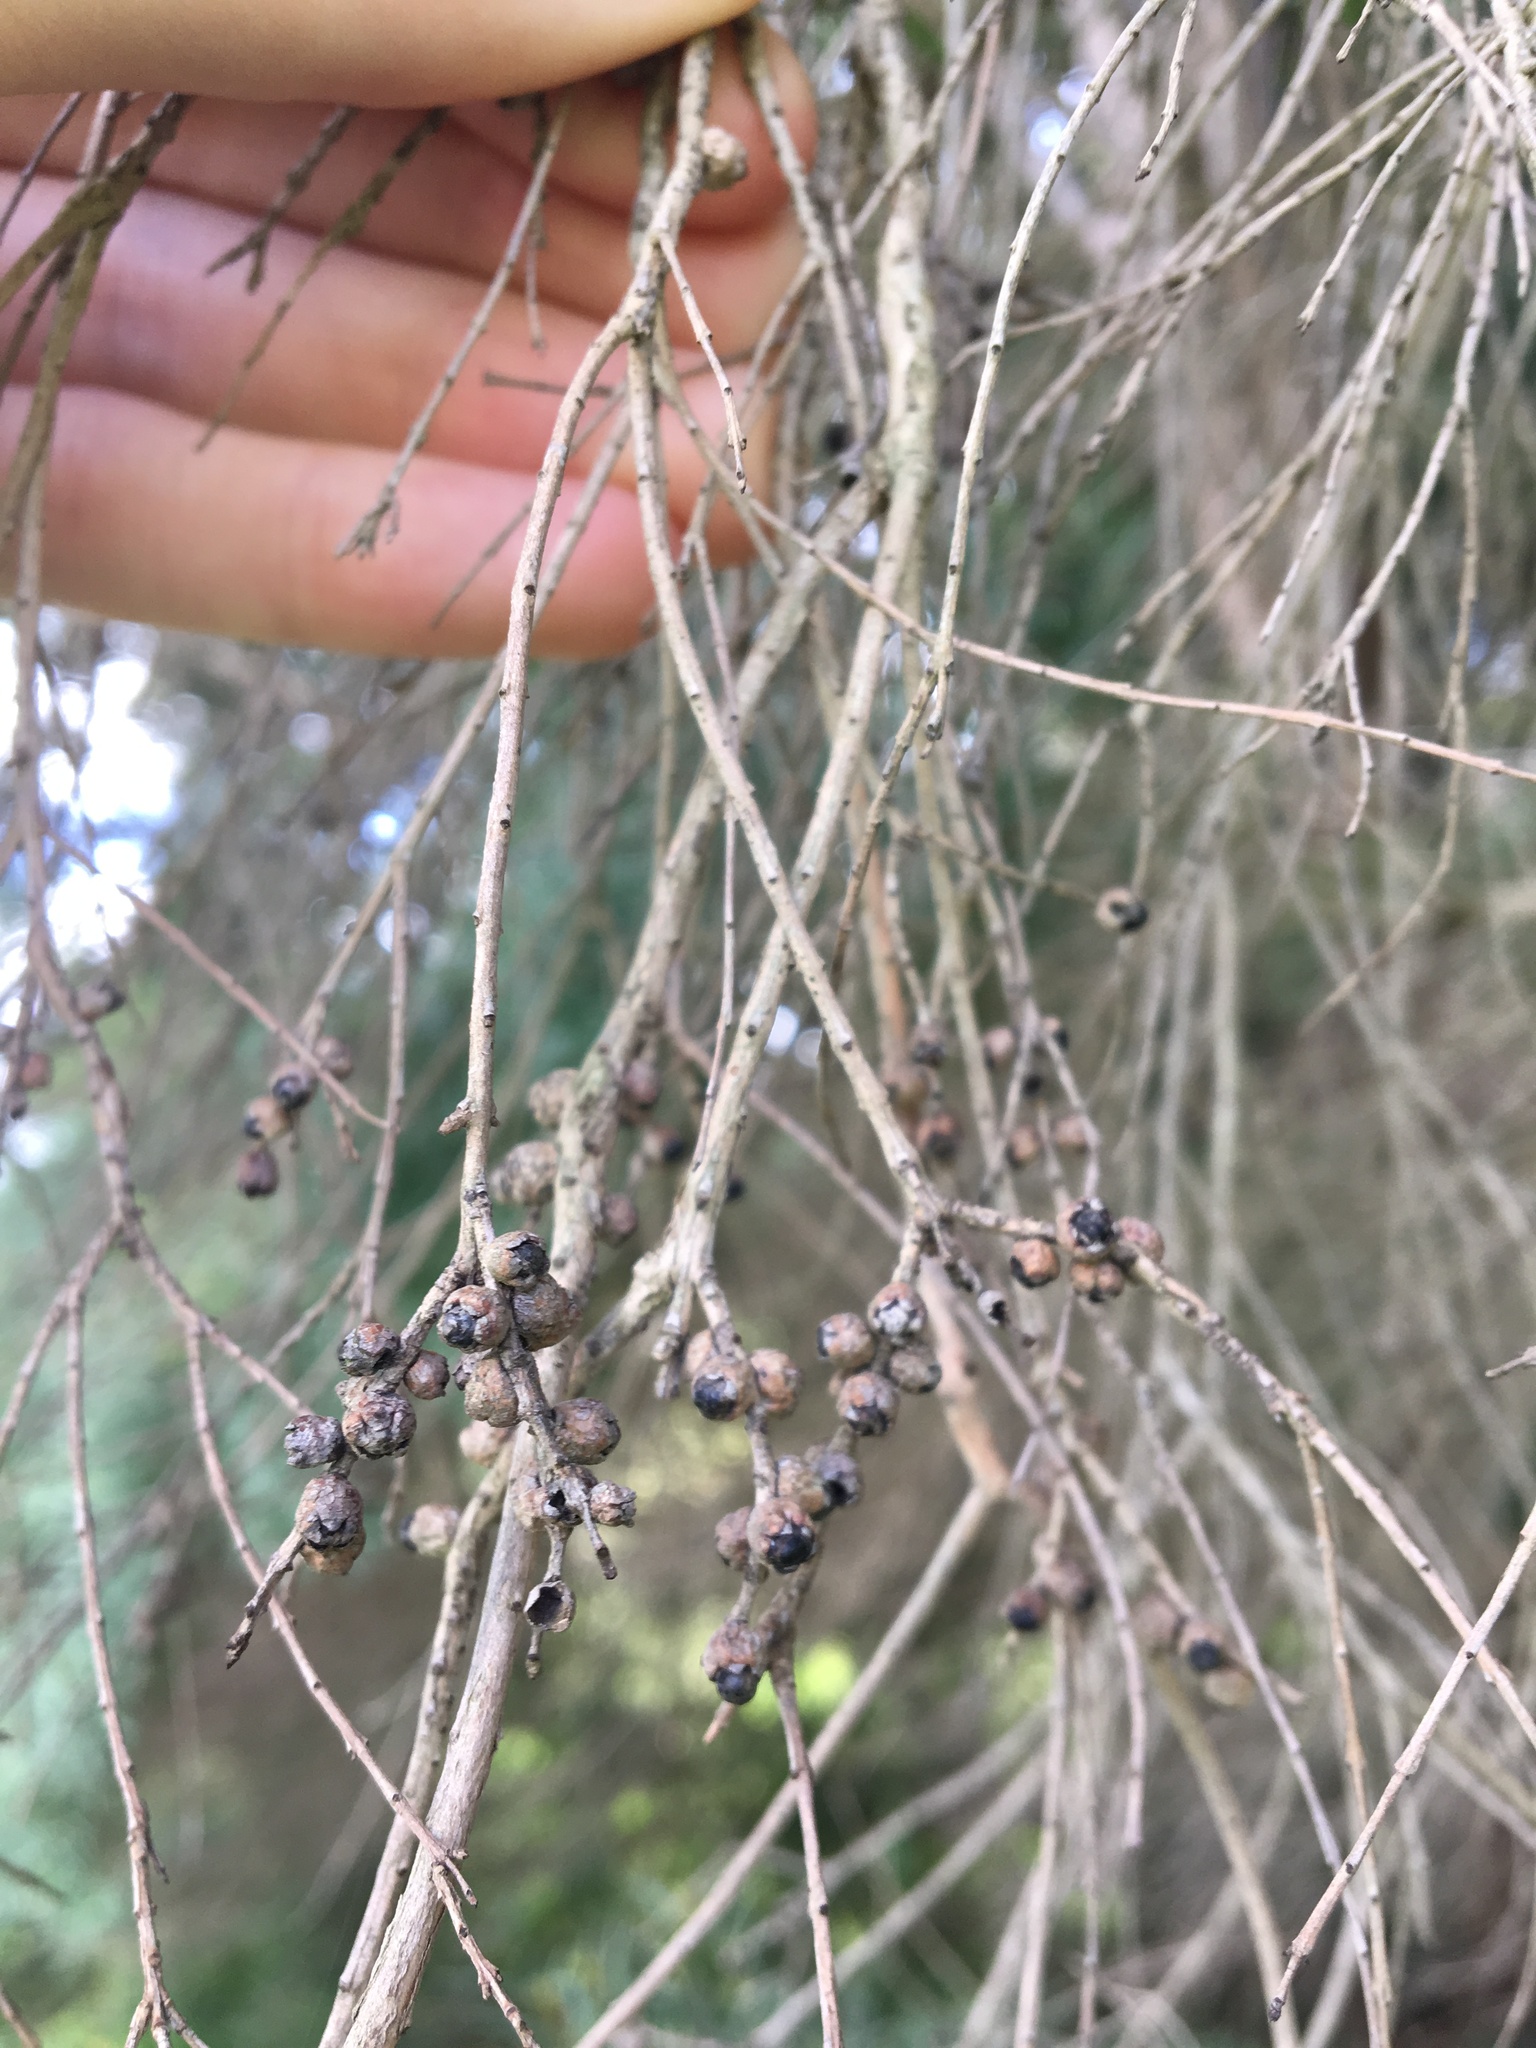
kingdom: Plantae
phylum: Tracheophyta
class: Magnoliopsida
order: Myrtales
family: Myrtaceae
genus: Melaleuca
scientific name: Melaleuca linariifolia
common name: Cajeput tree
